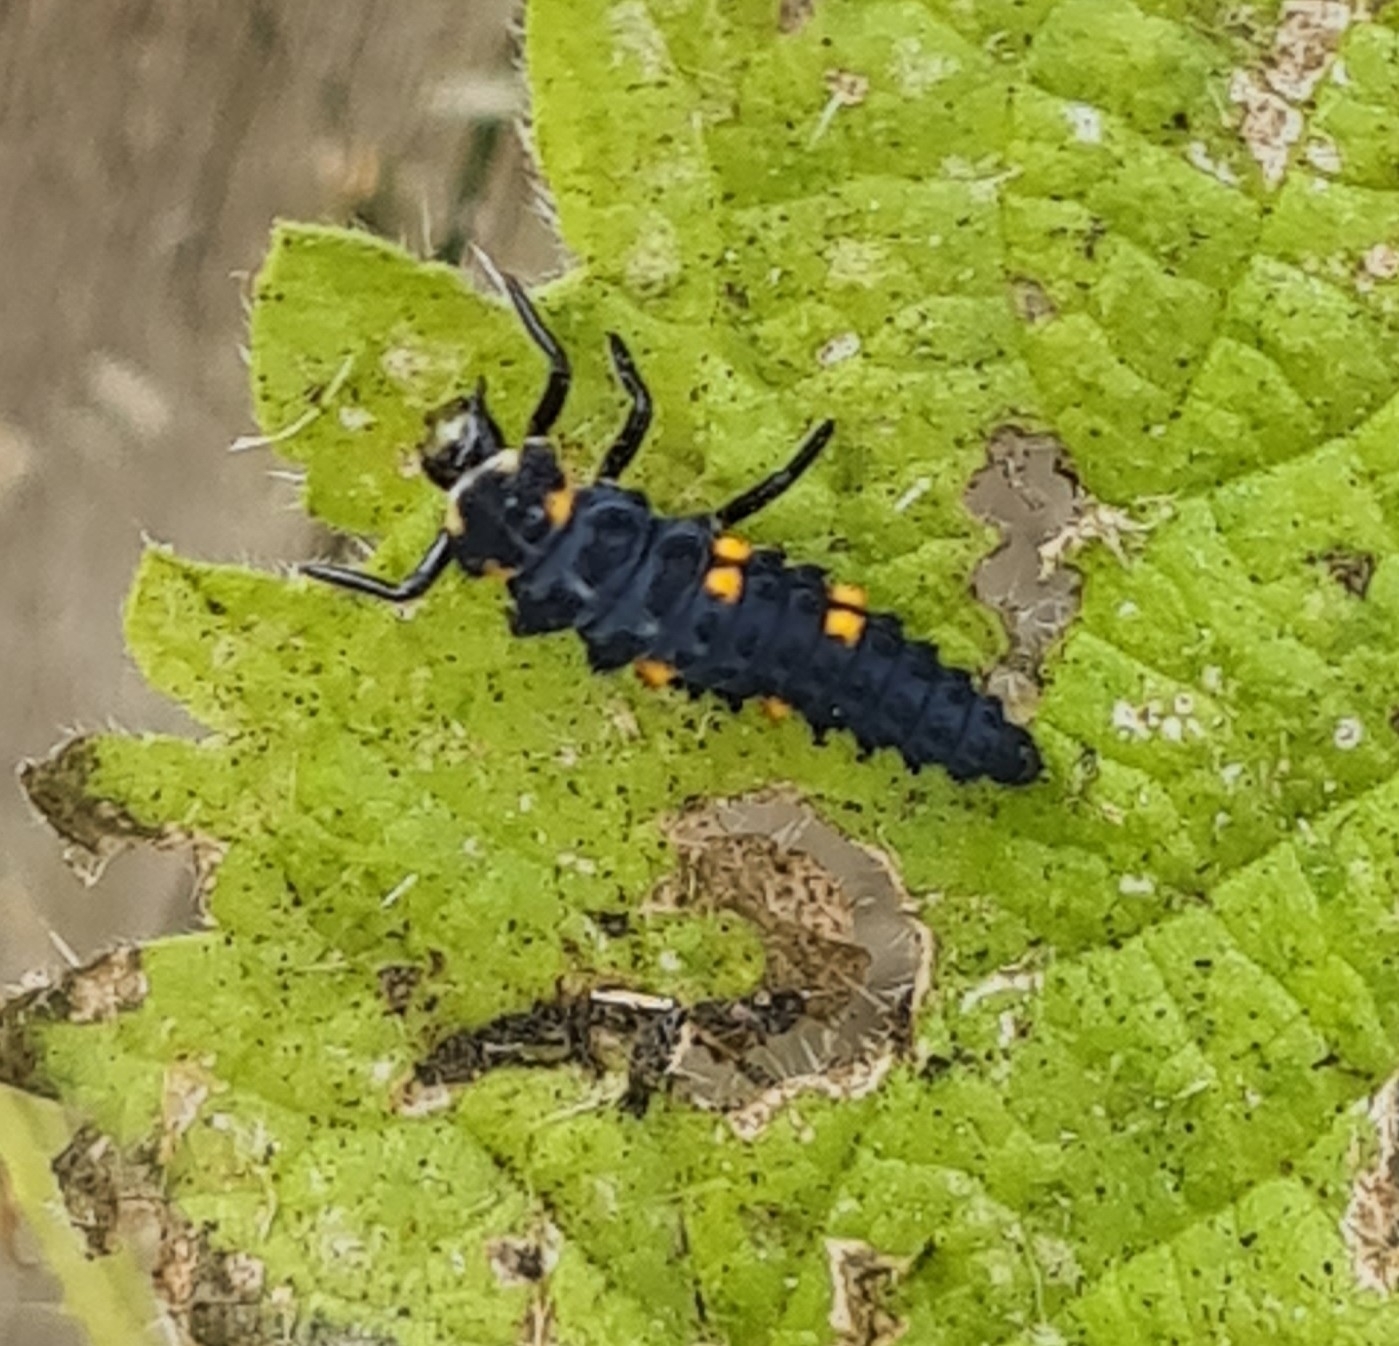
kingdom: Animalia
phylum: Arthropoda
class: Insecta
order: Coleoptera
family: Coccinellidae
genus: Coccinella
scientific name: Coccinella septempunctata
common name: Sevenspotted lady beetle
